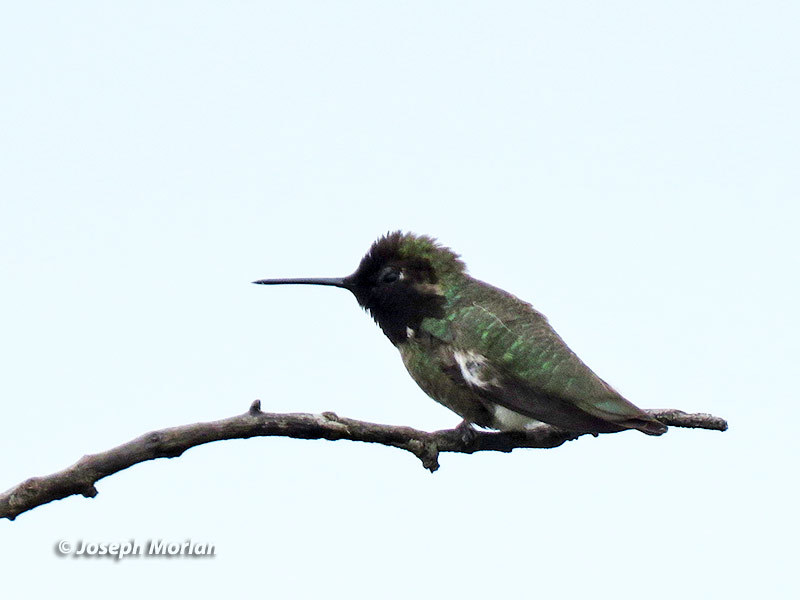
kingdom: Animalia
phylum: Chordata
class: Aves
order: Apodiformes
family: Trochilidae
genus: Calypte
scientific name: Calypte anna
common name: Anna's hummingbird
